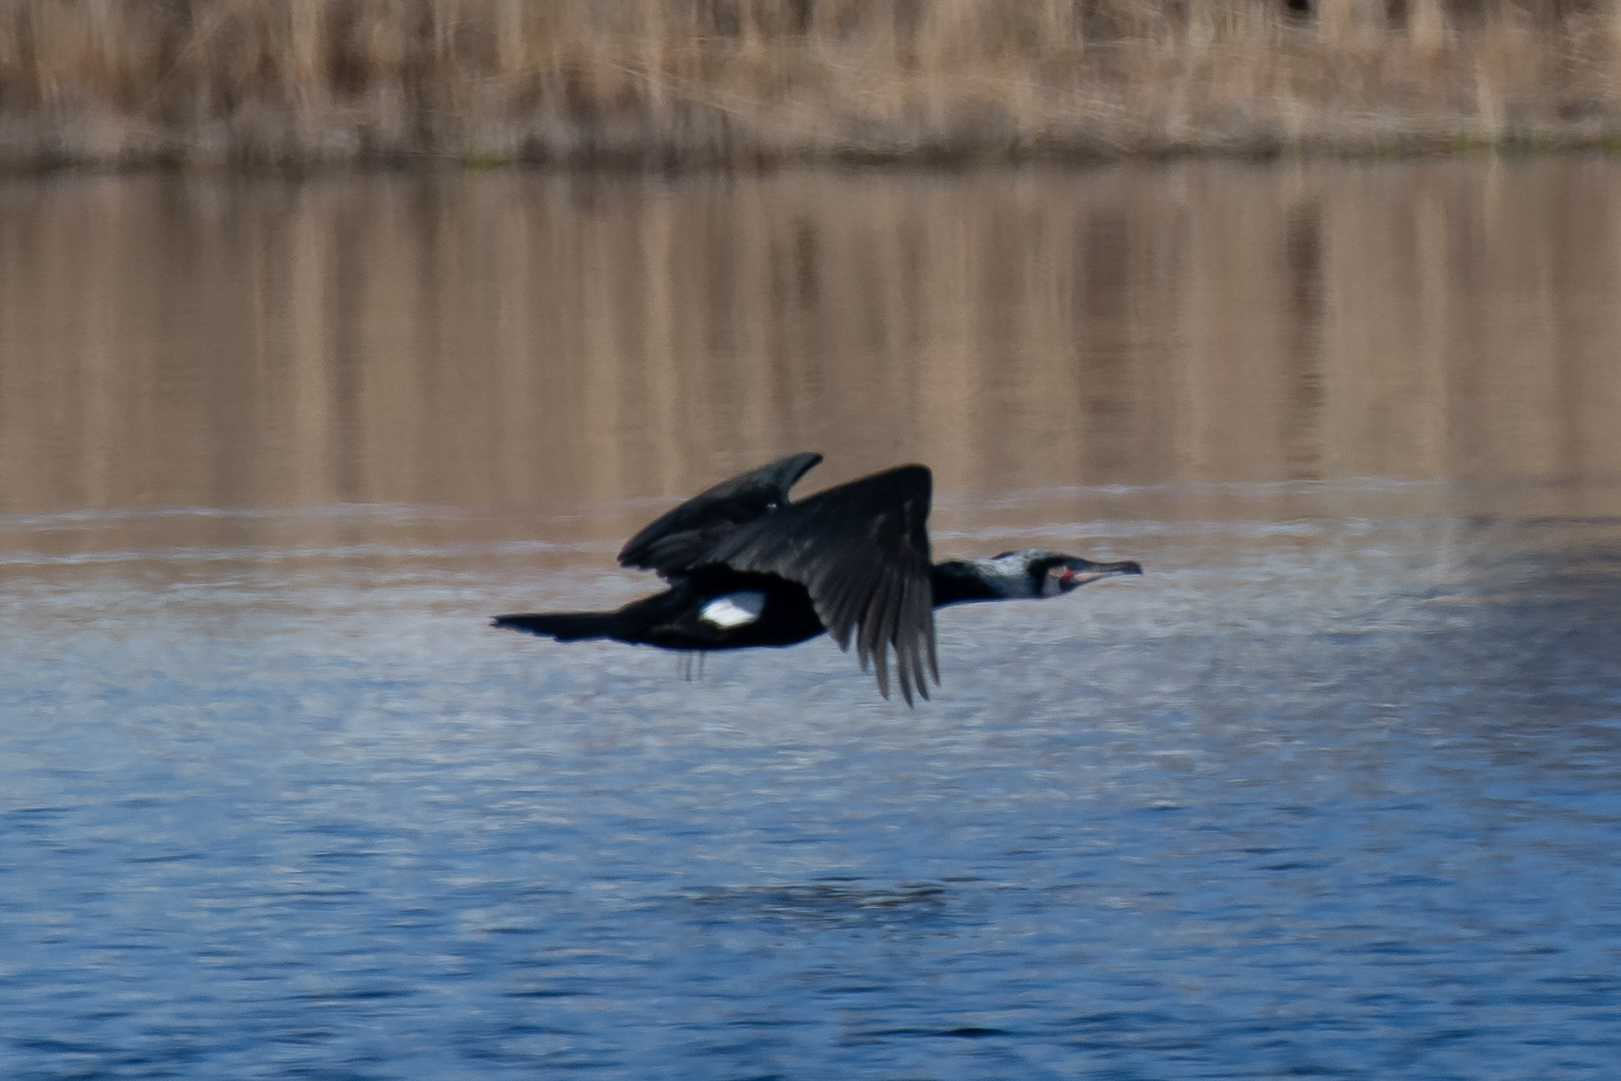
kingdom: Animalia
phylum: Chordata
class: Aves
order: Suliformes
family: Phalacrocoracidae
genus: Phalacrocorax
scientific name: Phalacrocorax carbo
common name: Great cormorant
